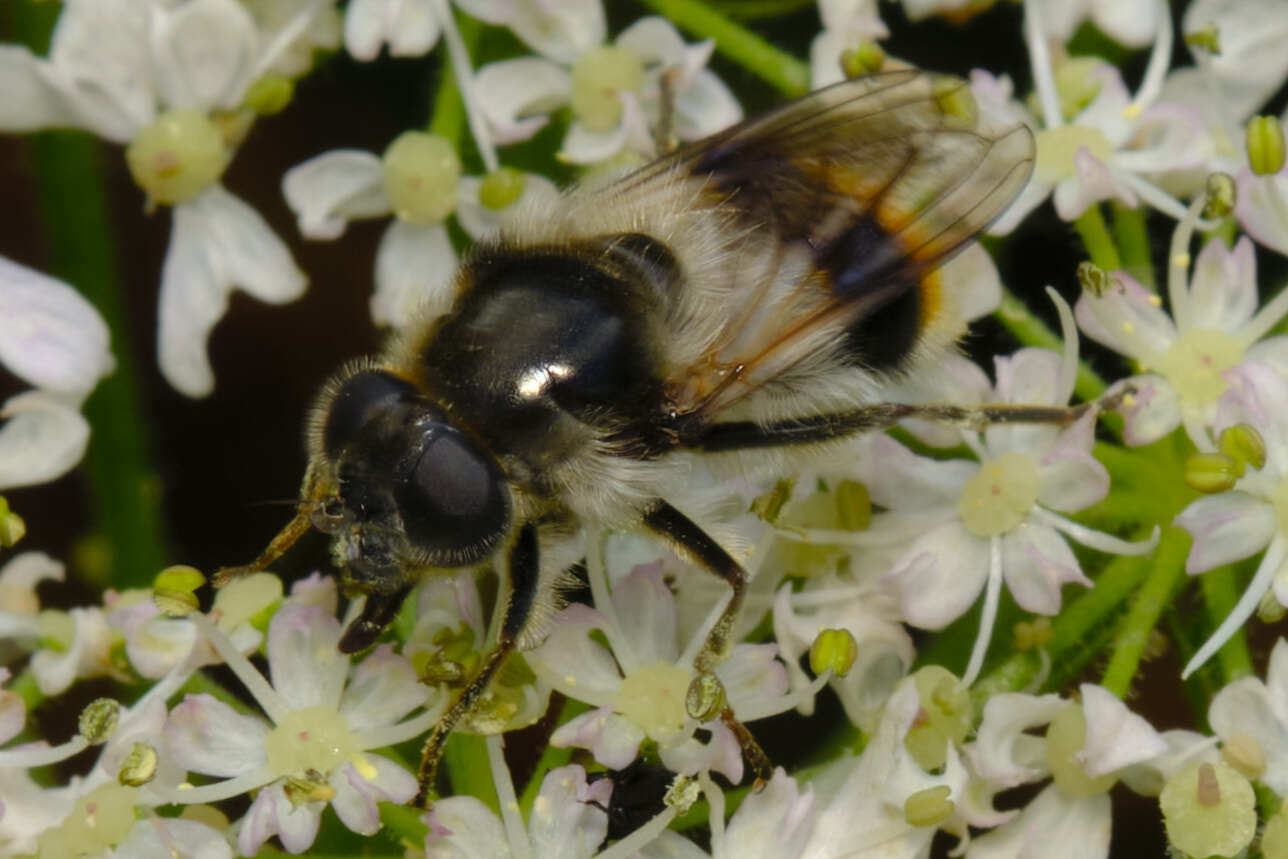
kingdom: Animalia
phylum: Arthropoda
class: Insecta
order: Diptera
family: Syrphidae
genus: Cheilosia
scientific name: Cheilosia illustrata
